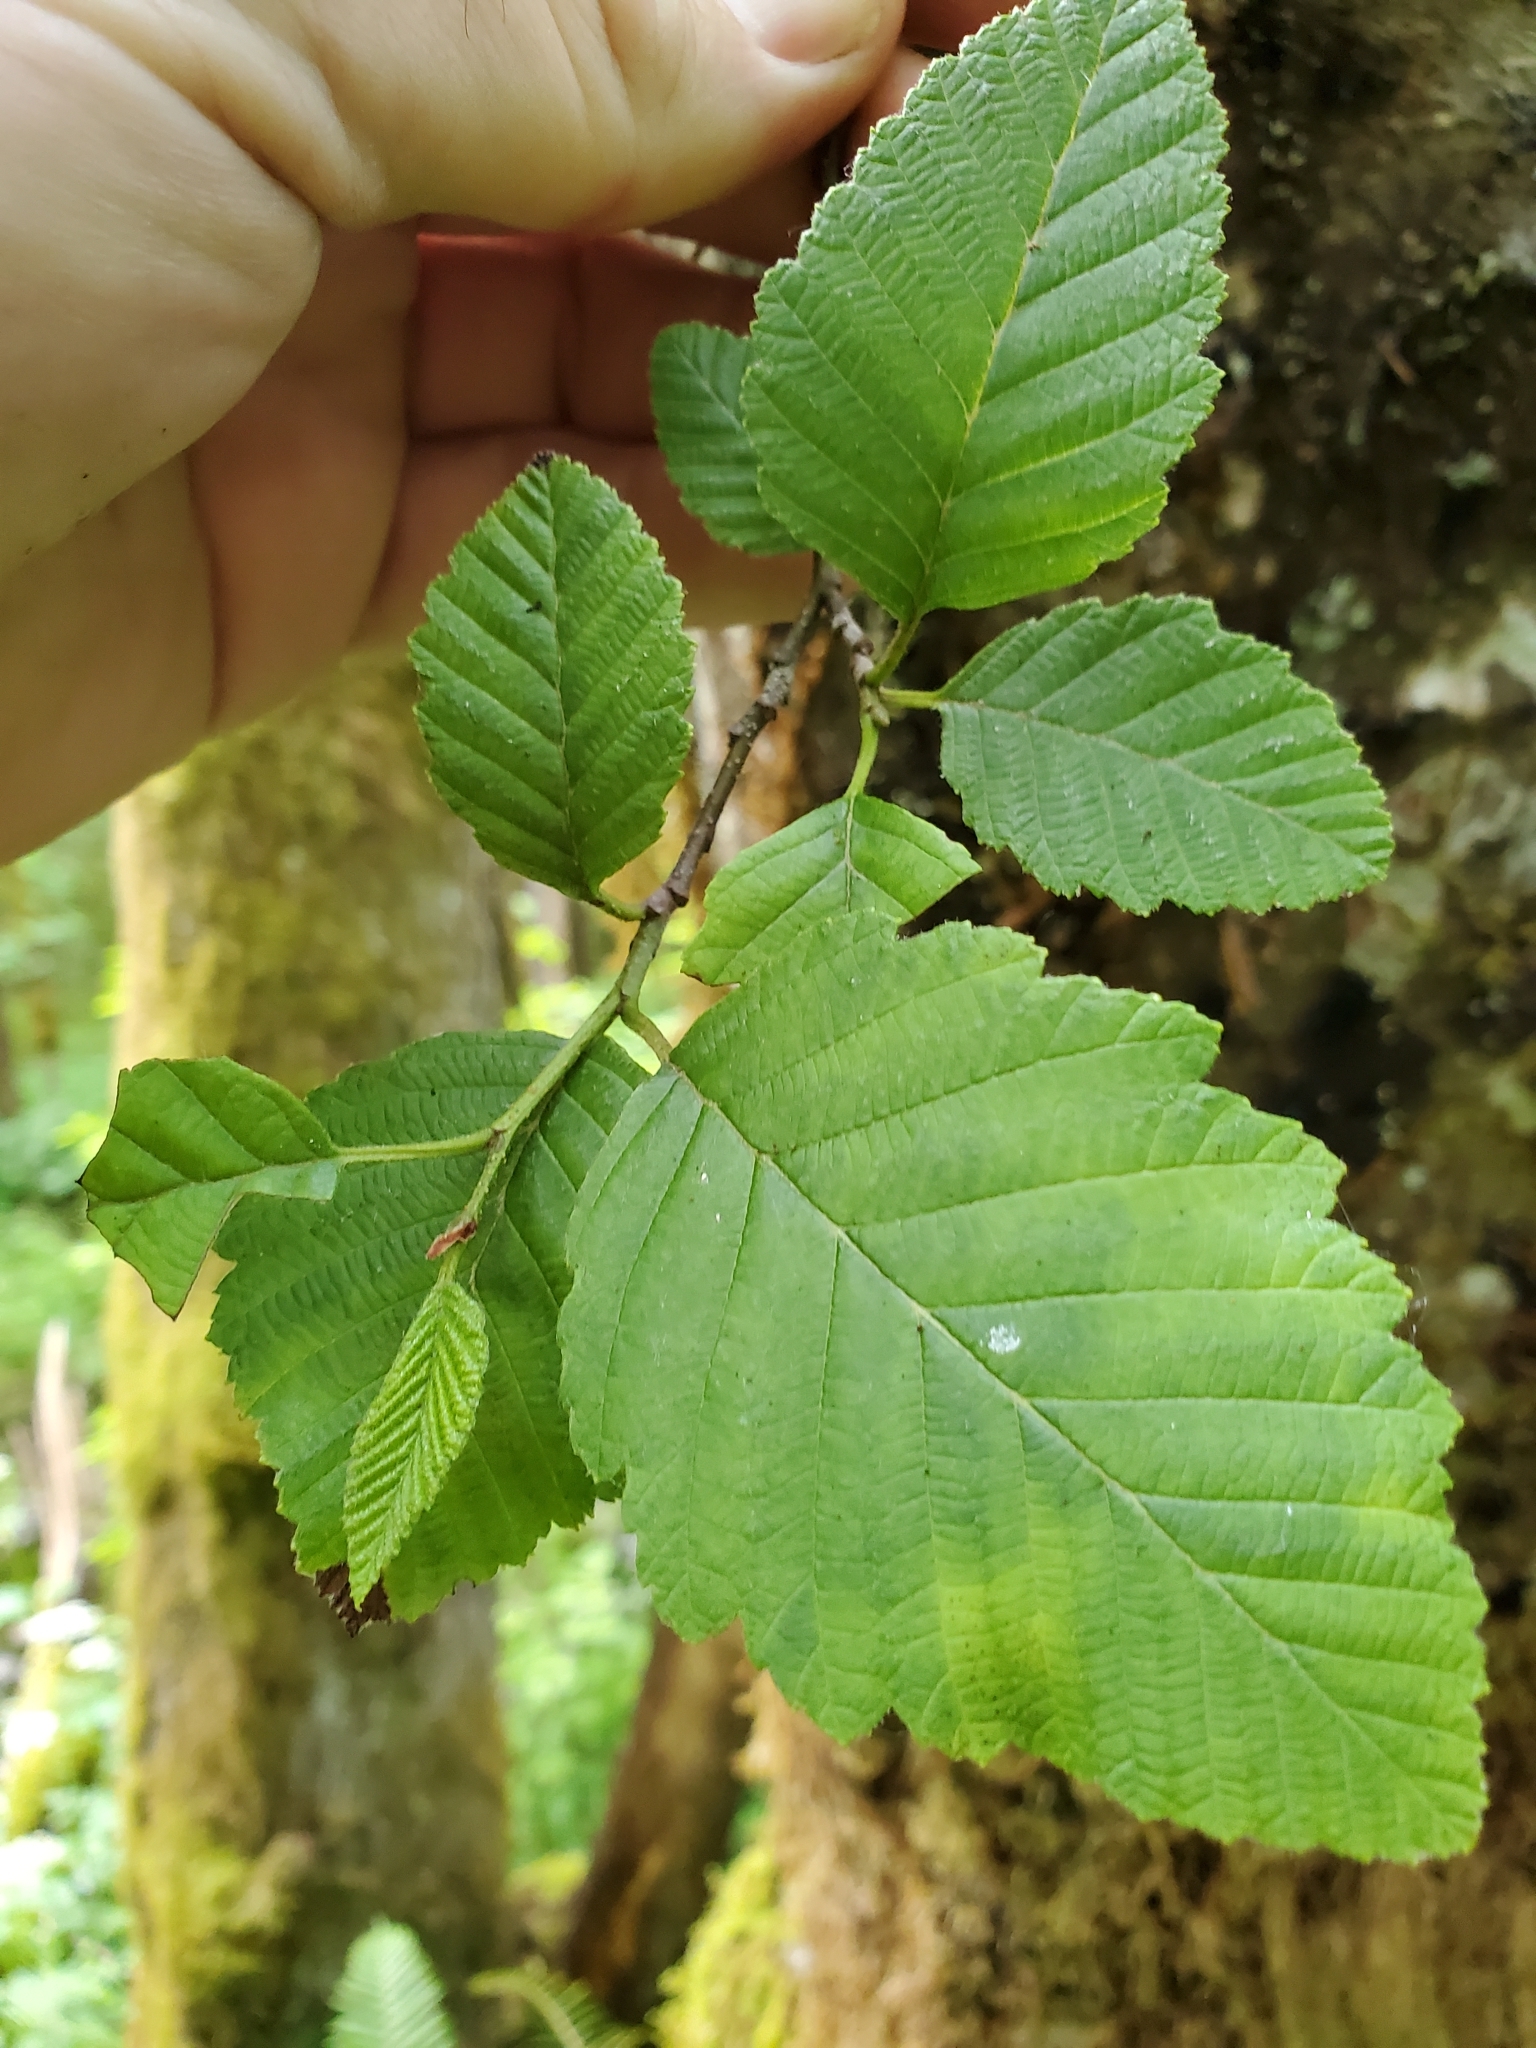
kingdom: Plantae
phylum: Tracheophyta
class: Magnoliopsida
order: Fagales
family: Betulaceae
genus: Alnus
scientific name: Alnus rubra
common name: Red alder
